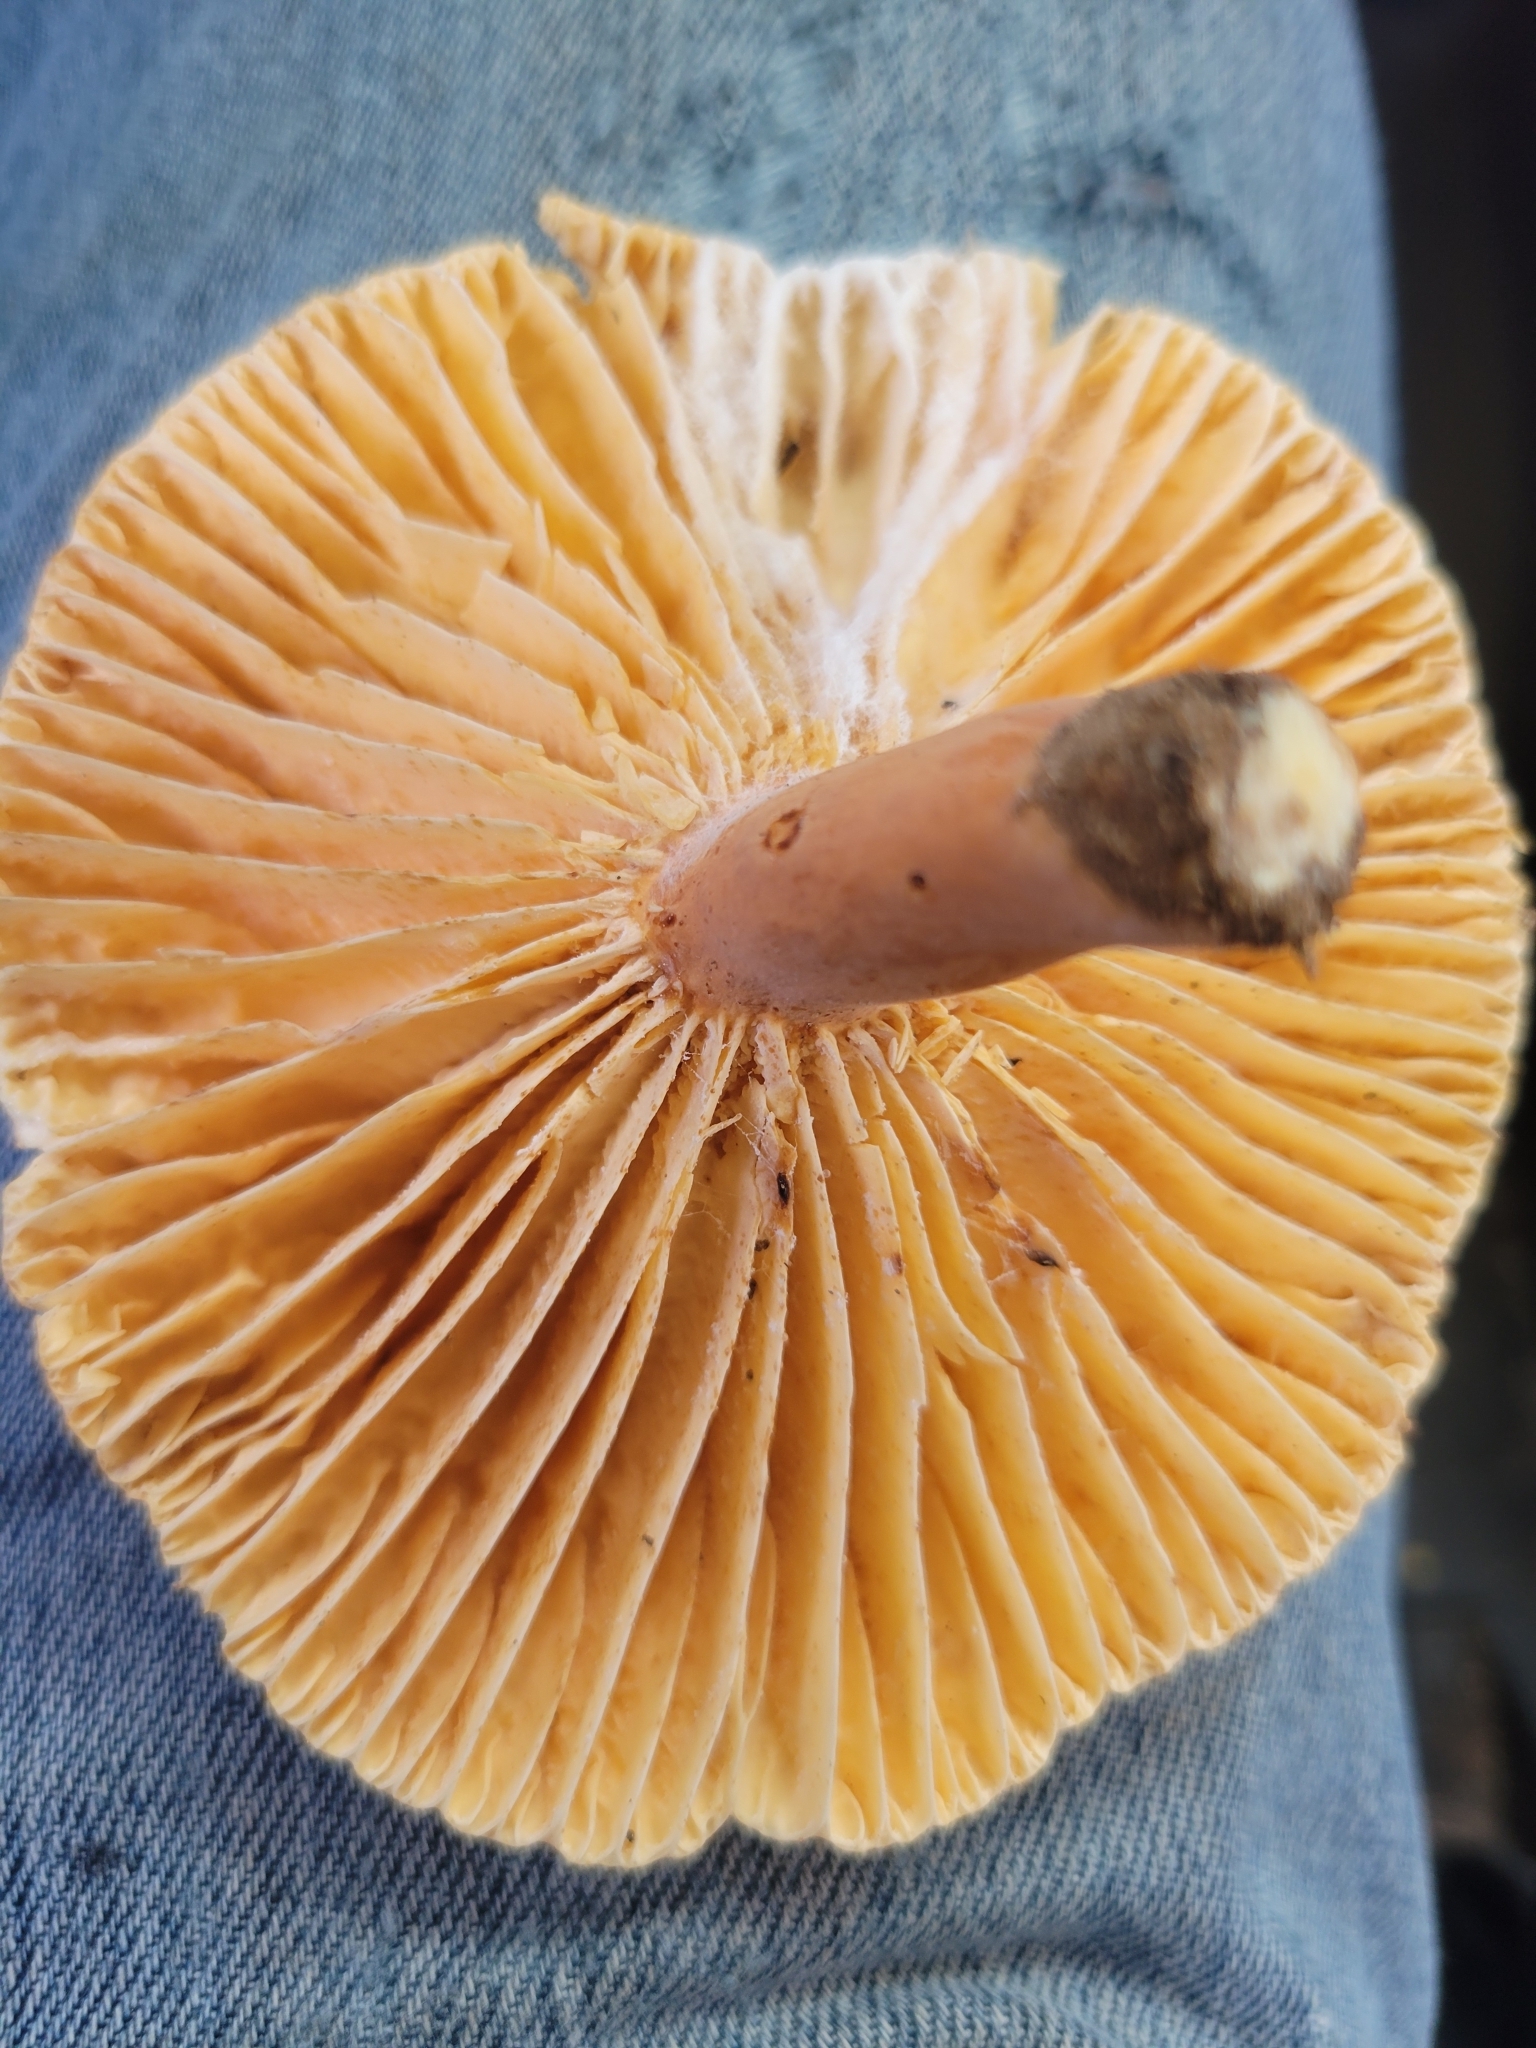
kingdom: Fungi
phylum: Basidiomycota
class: Agaricomycetes
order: Russulales
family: Russulaceae
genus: Lactarius
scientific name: Lactarius hygrophoroides
